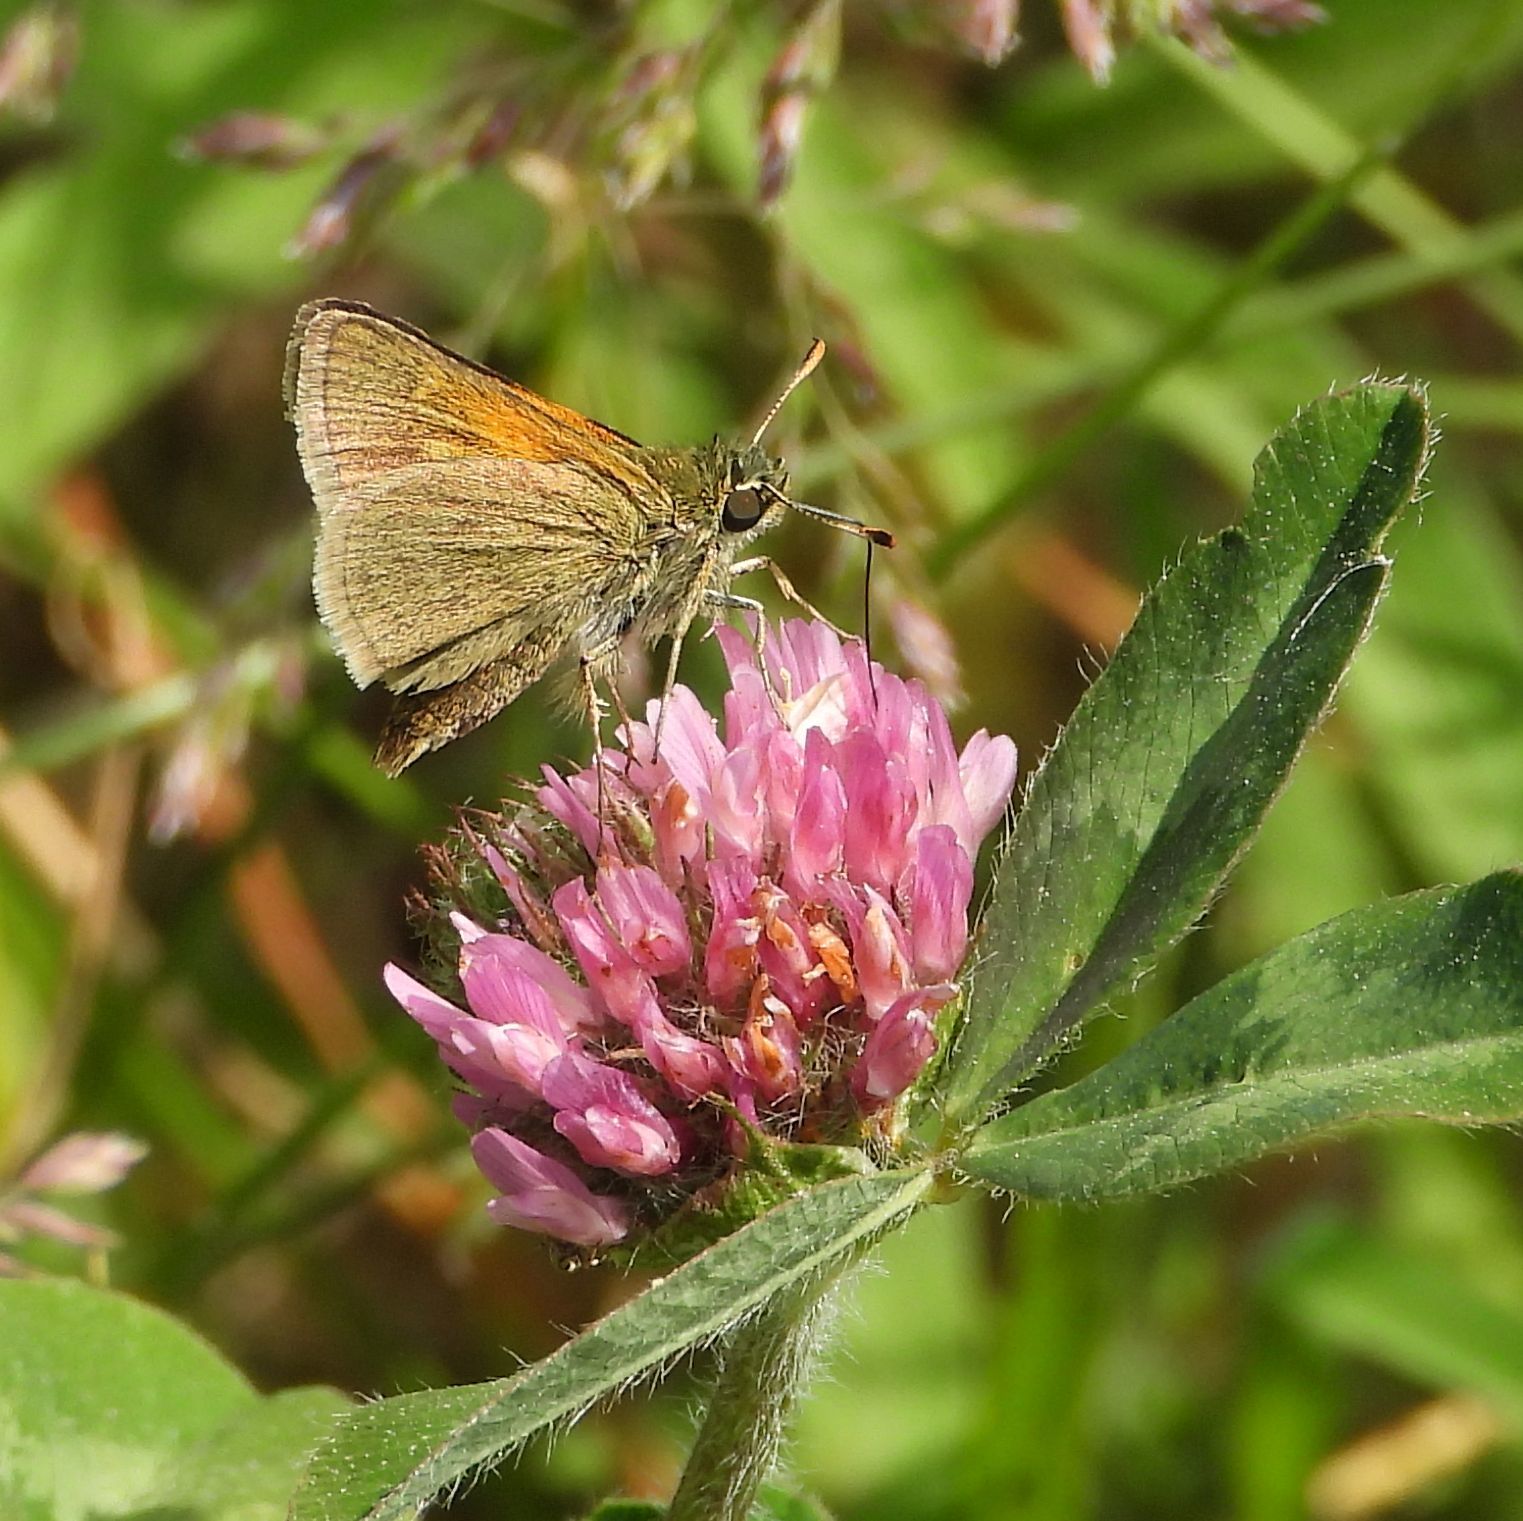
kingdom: Animalia
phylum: Arthropoda
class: Insecta
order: Lepidoptera
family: Hesperiidae
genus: Polites
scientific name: Polites themistocles
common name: Tawny-edged skipper
